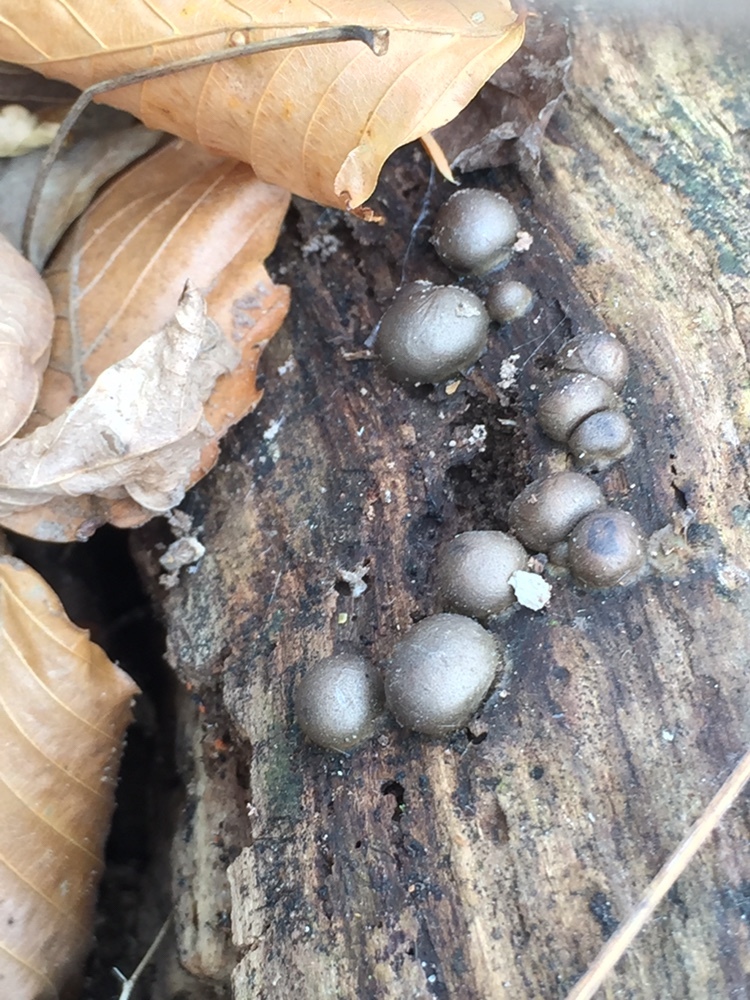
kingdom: Protozoa
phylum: Mycetozoa
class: Myxomycetes
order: Cribrariales
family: Tubiferaceae
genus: Lycogala
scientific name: Lycogala epidendrum
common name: Wolf's milk
